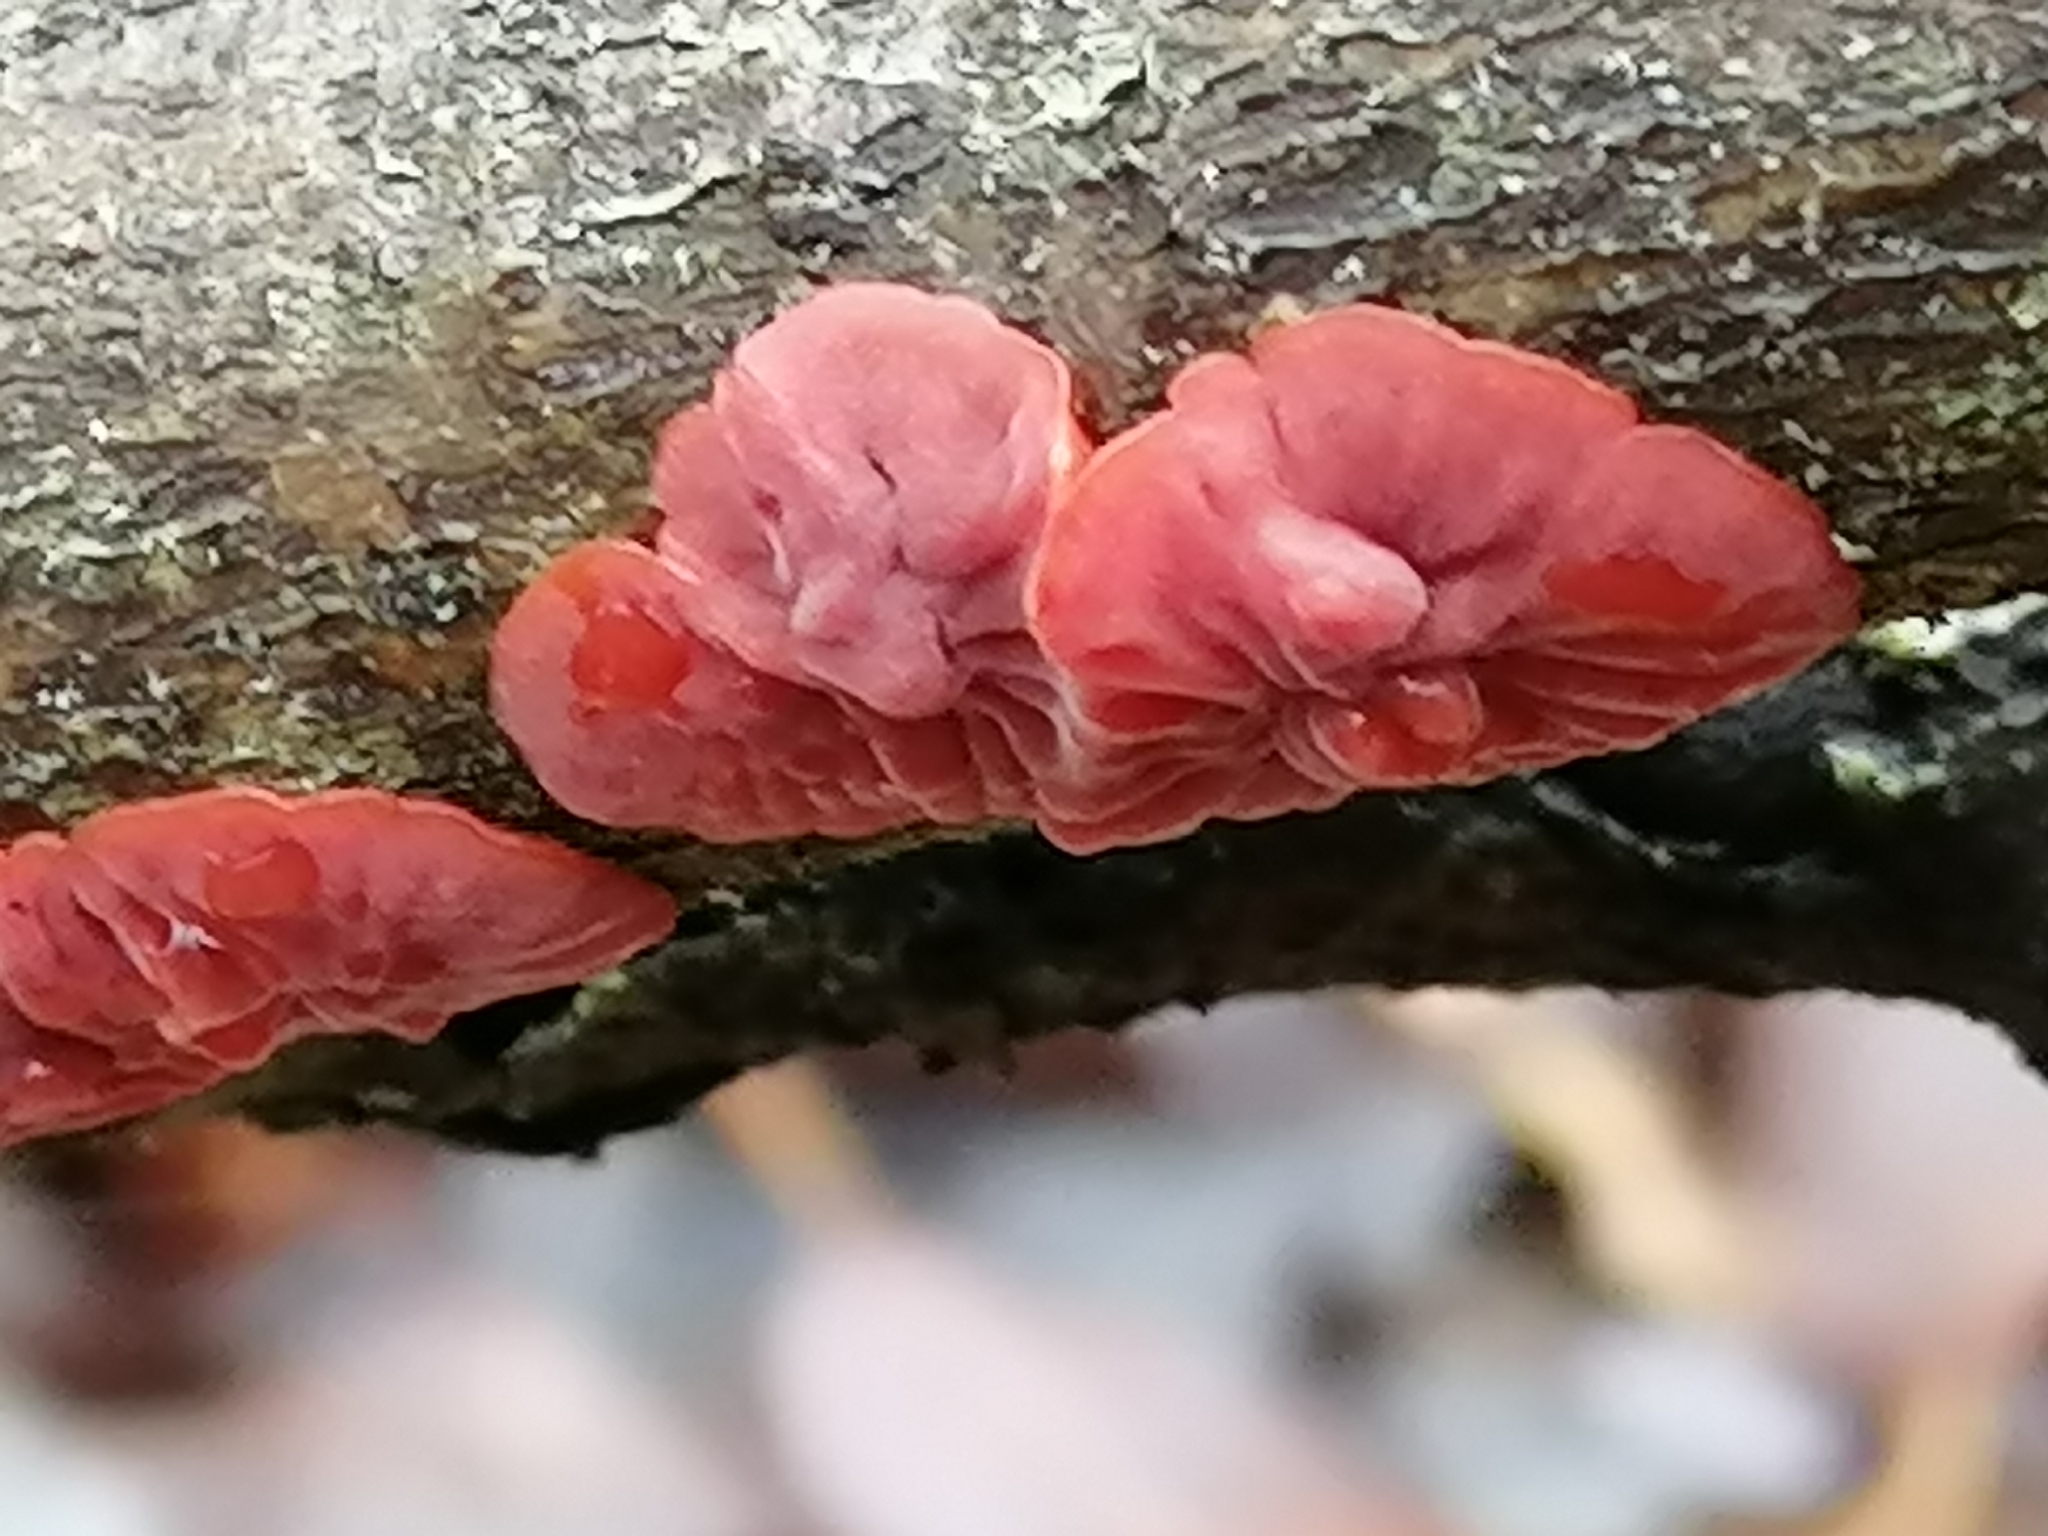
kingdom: Fungi
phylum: Basidiomycota
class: Agaricomycetes
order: Corticiales
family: Vuilleminiaceae
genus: Cytidia
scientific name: Cytidia salicina
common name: Scarlet splash
